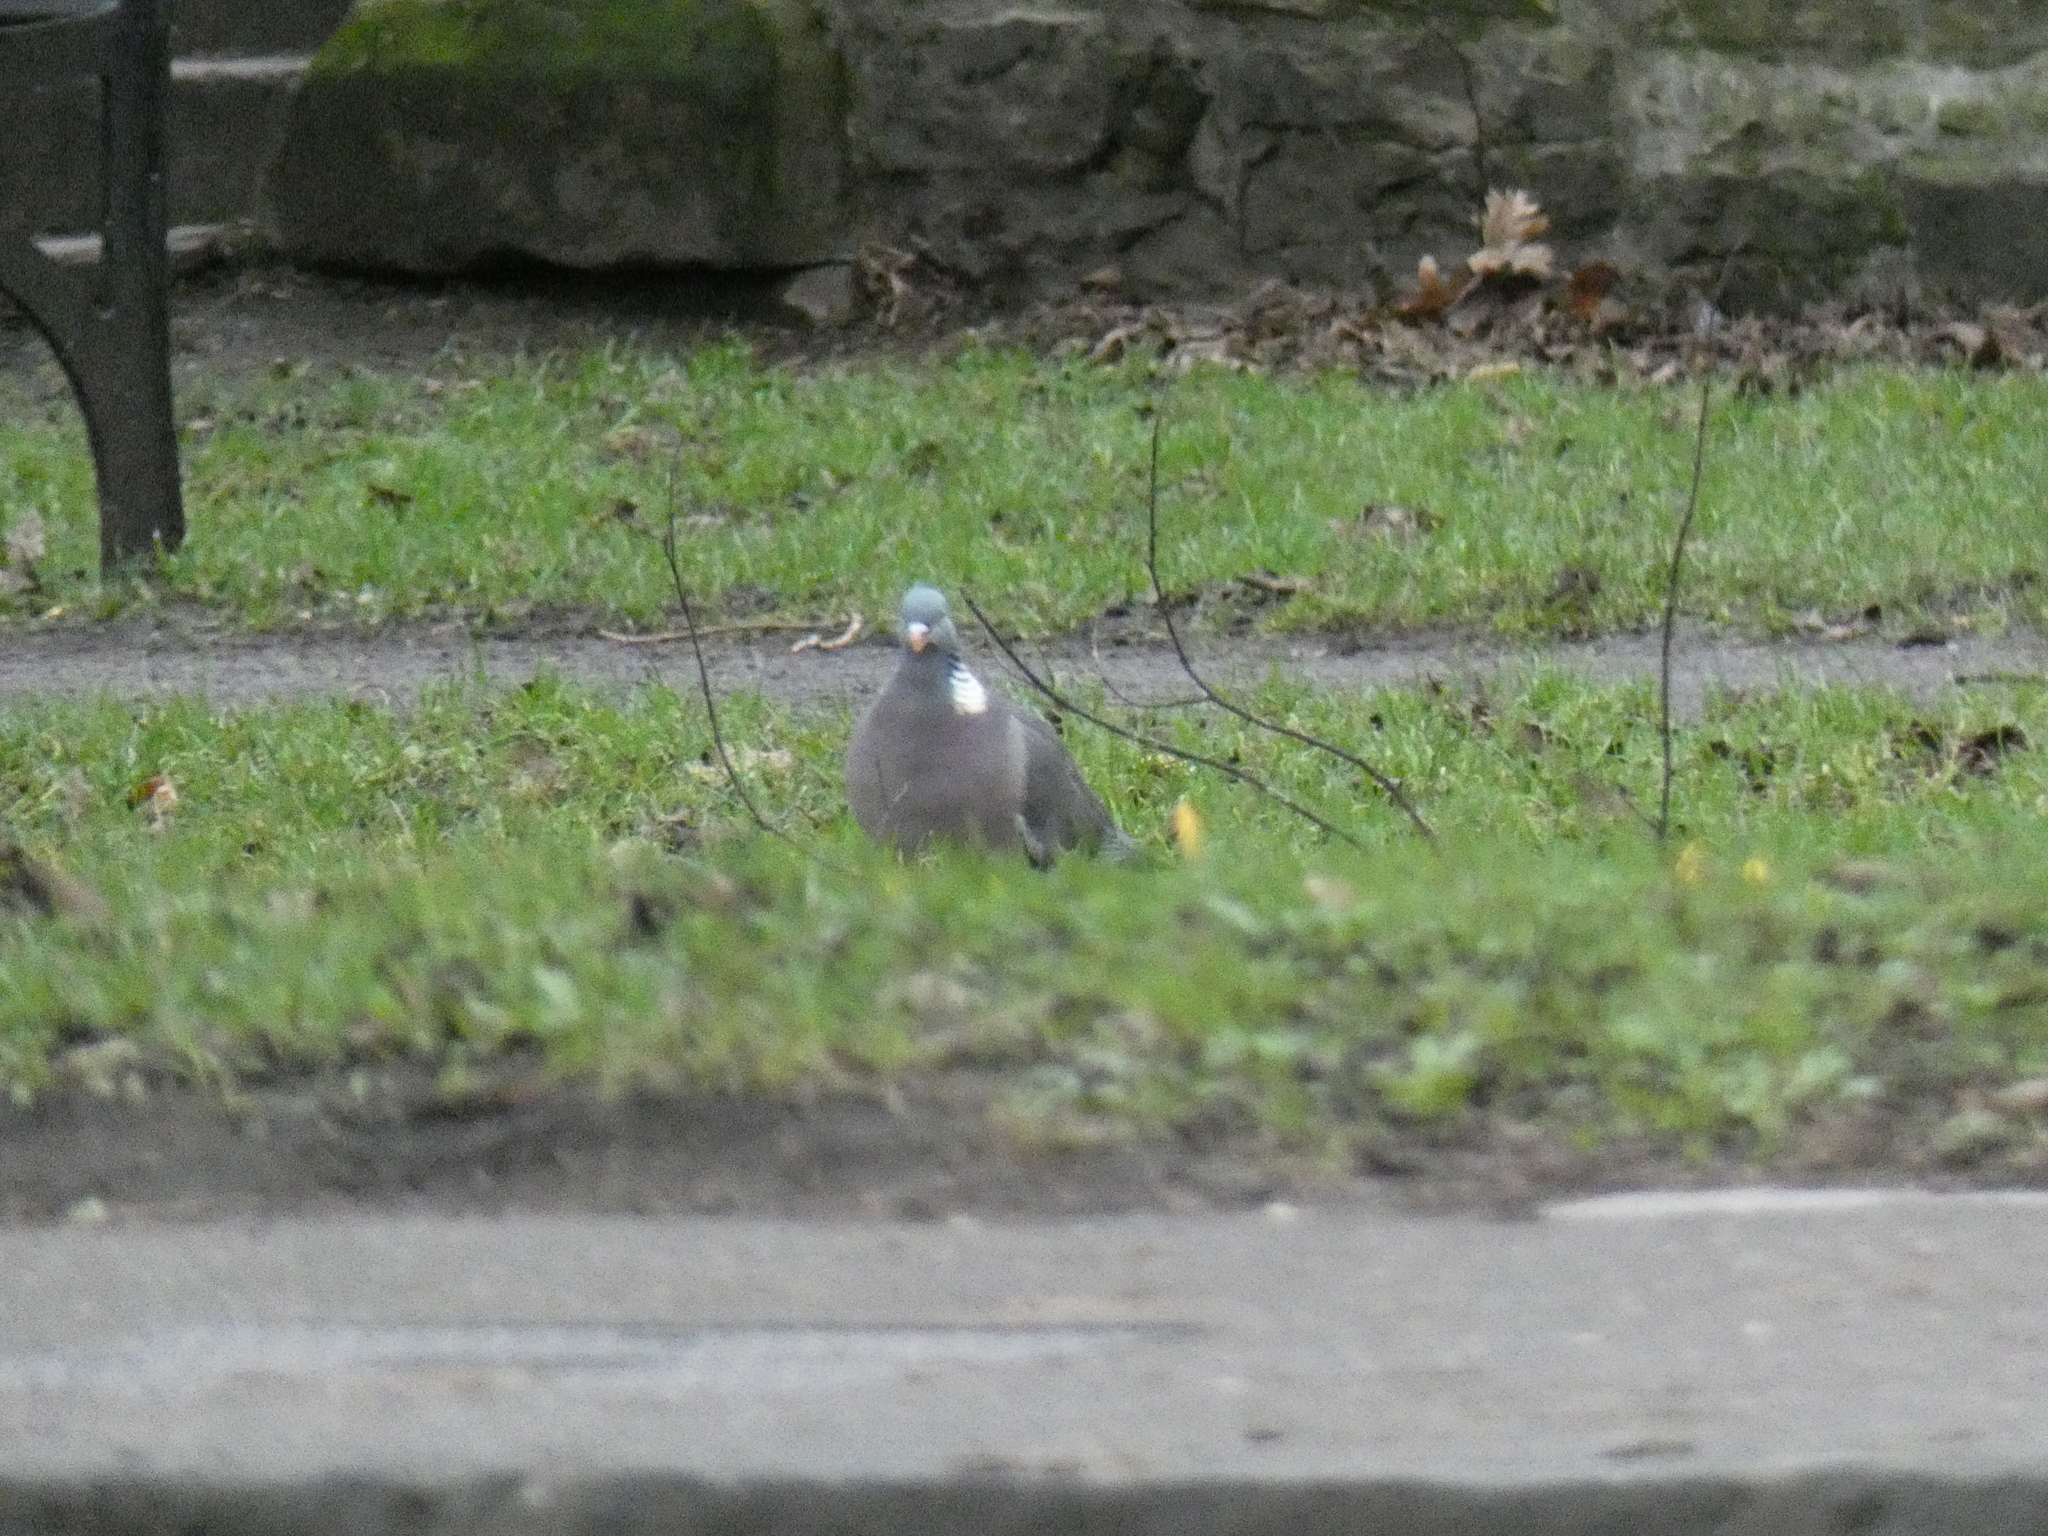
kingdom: Animalia
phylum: Chordata
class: Aves
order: Columbiformes
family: Columbidae
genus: Columba
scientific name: Columba palumbus
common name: Common wood pigeon
